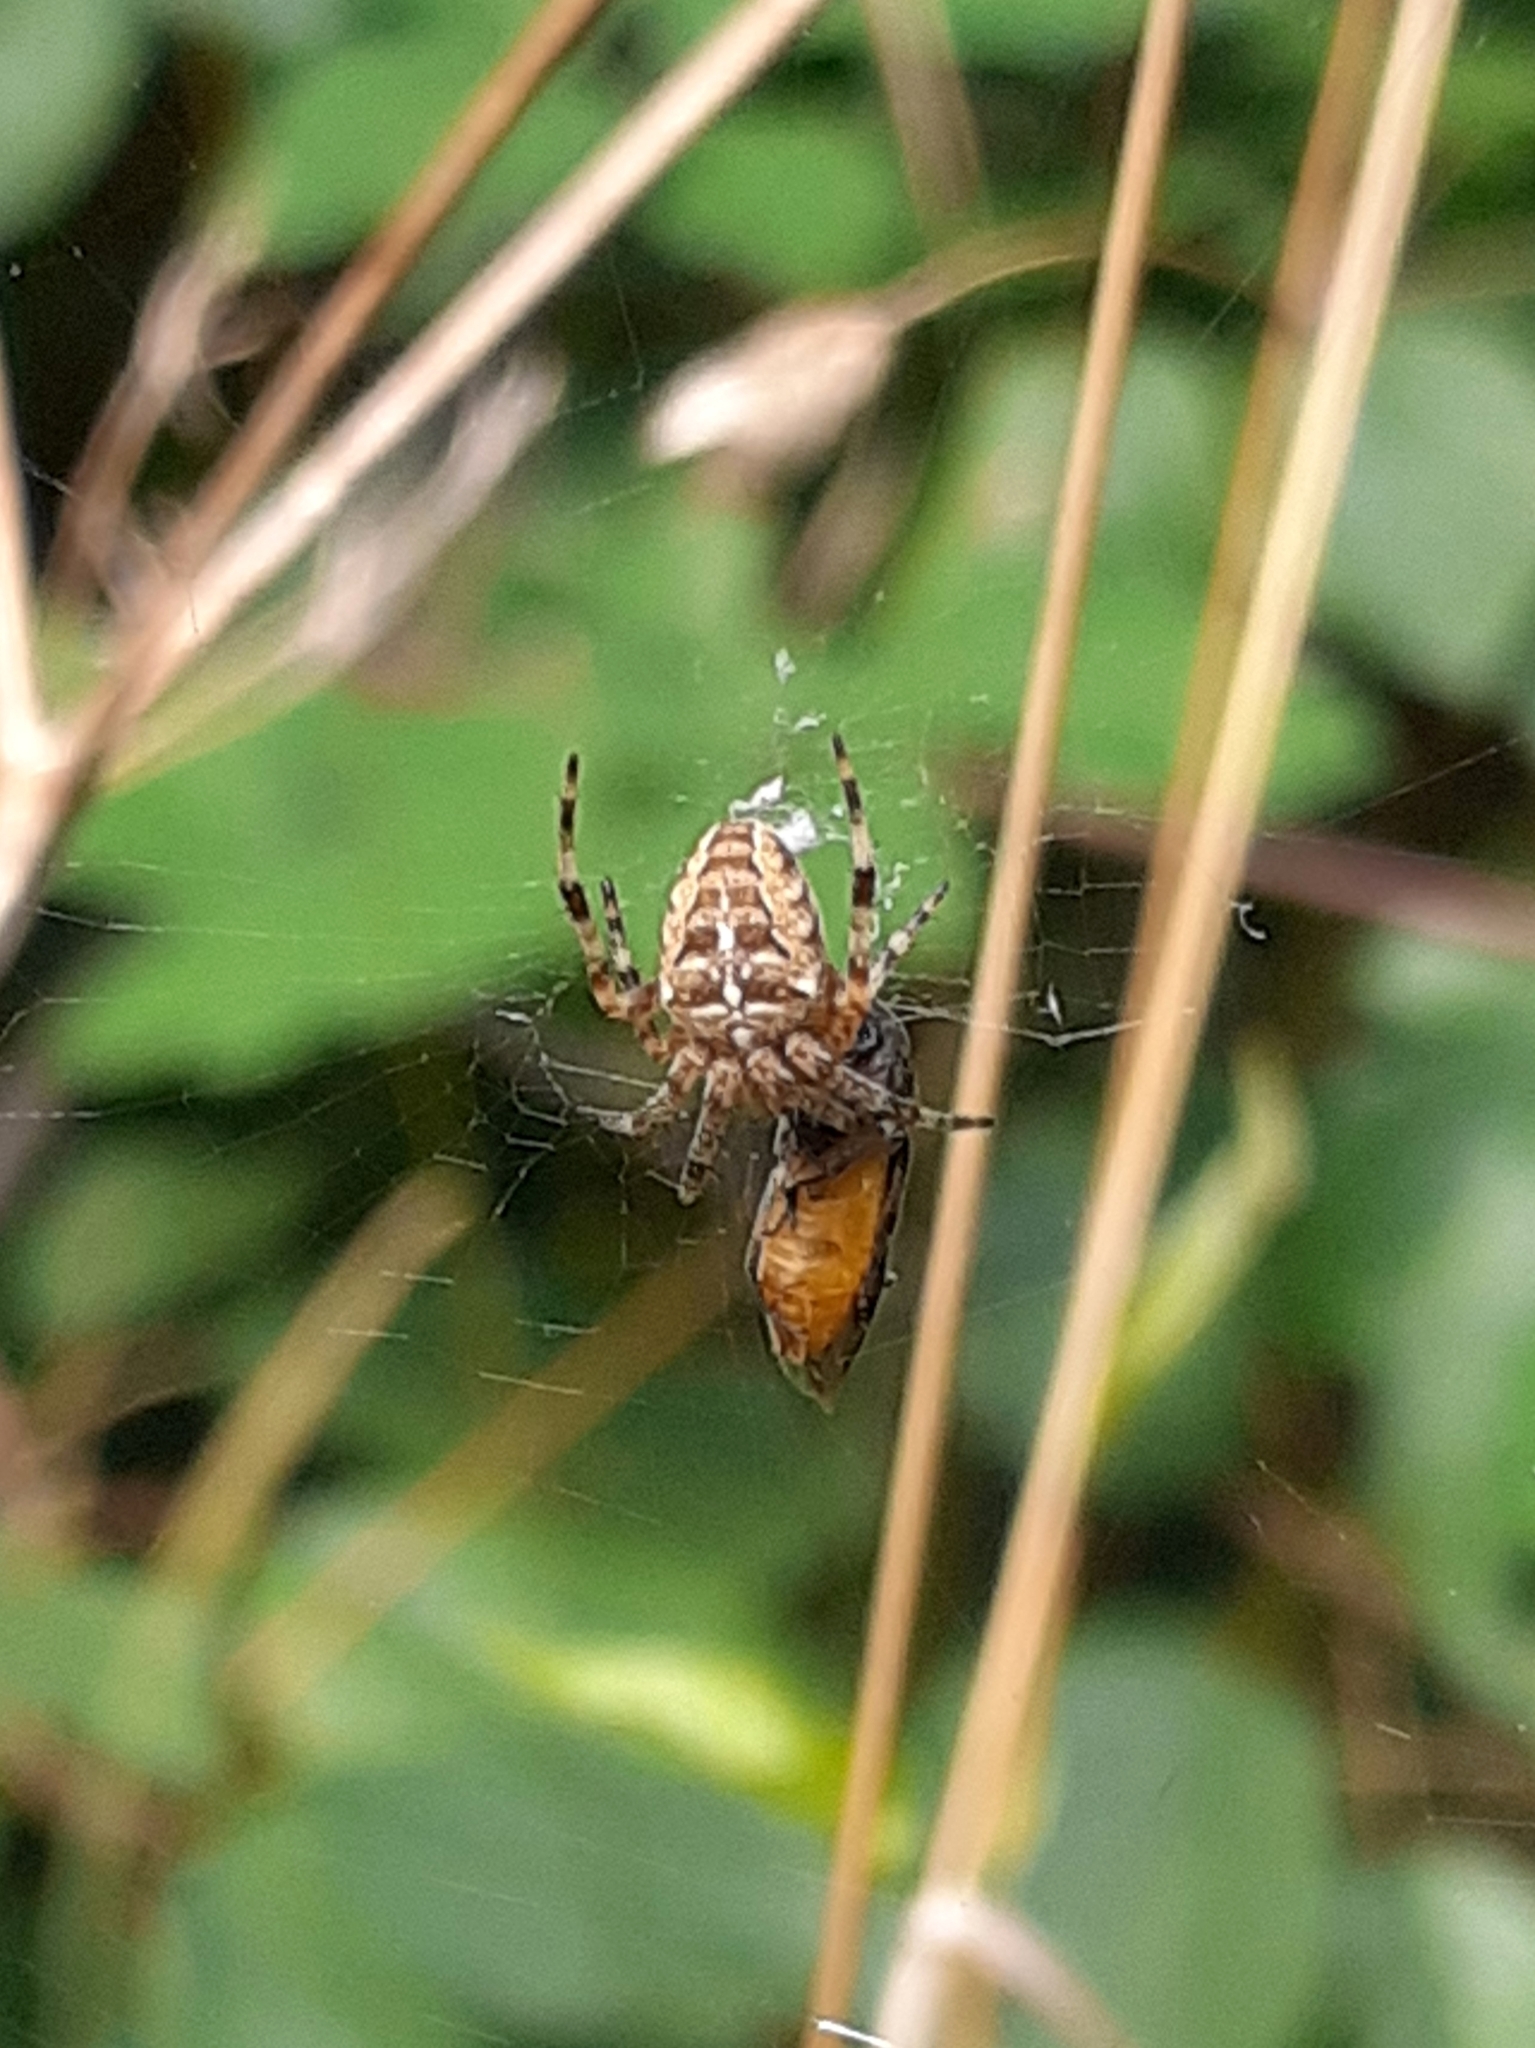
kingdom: Animalia
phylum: Arthropoda
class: Arachnida
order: Araneae
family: Araneidae
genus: Araneus
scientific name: Araneus diadematus
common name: Cross orbweaver
